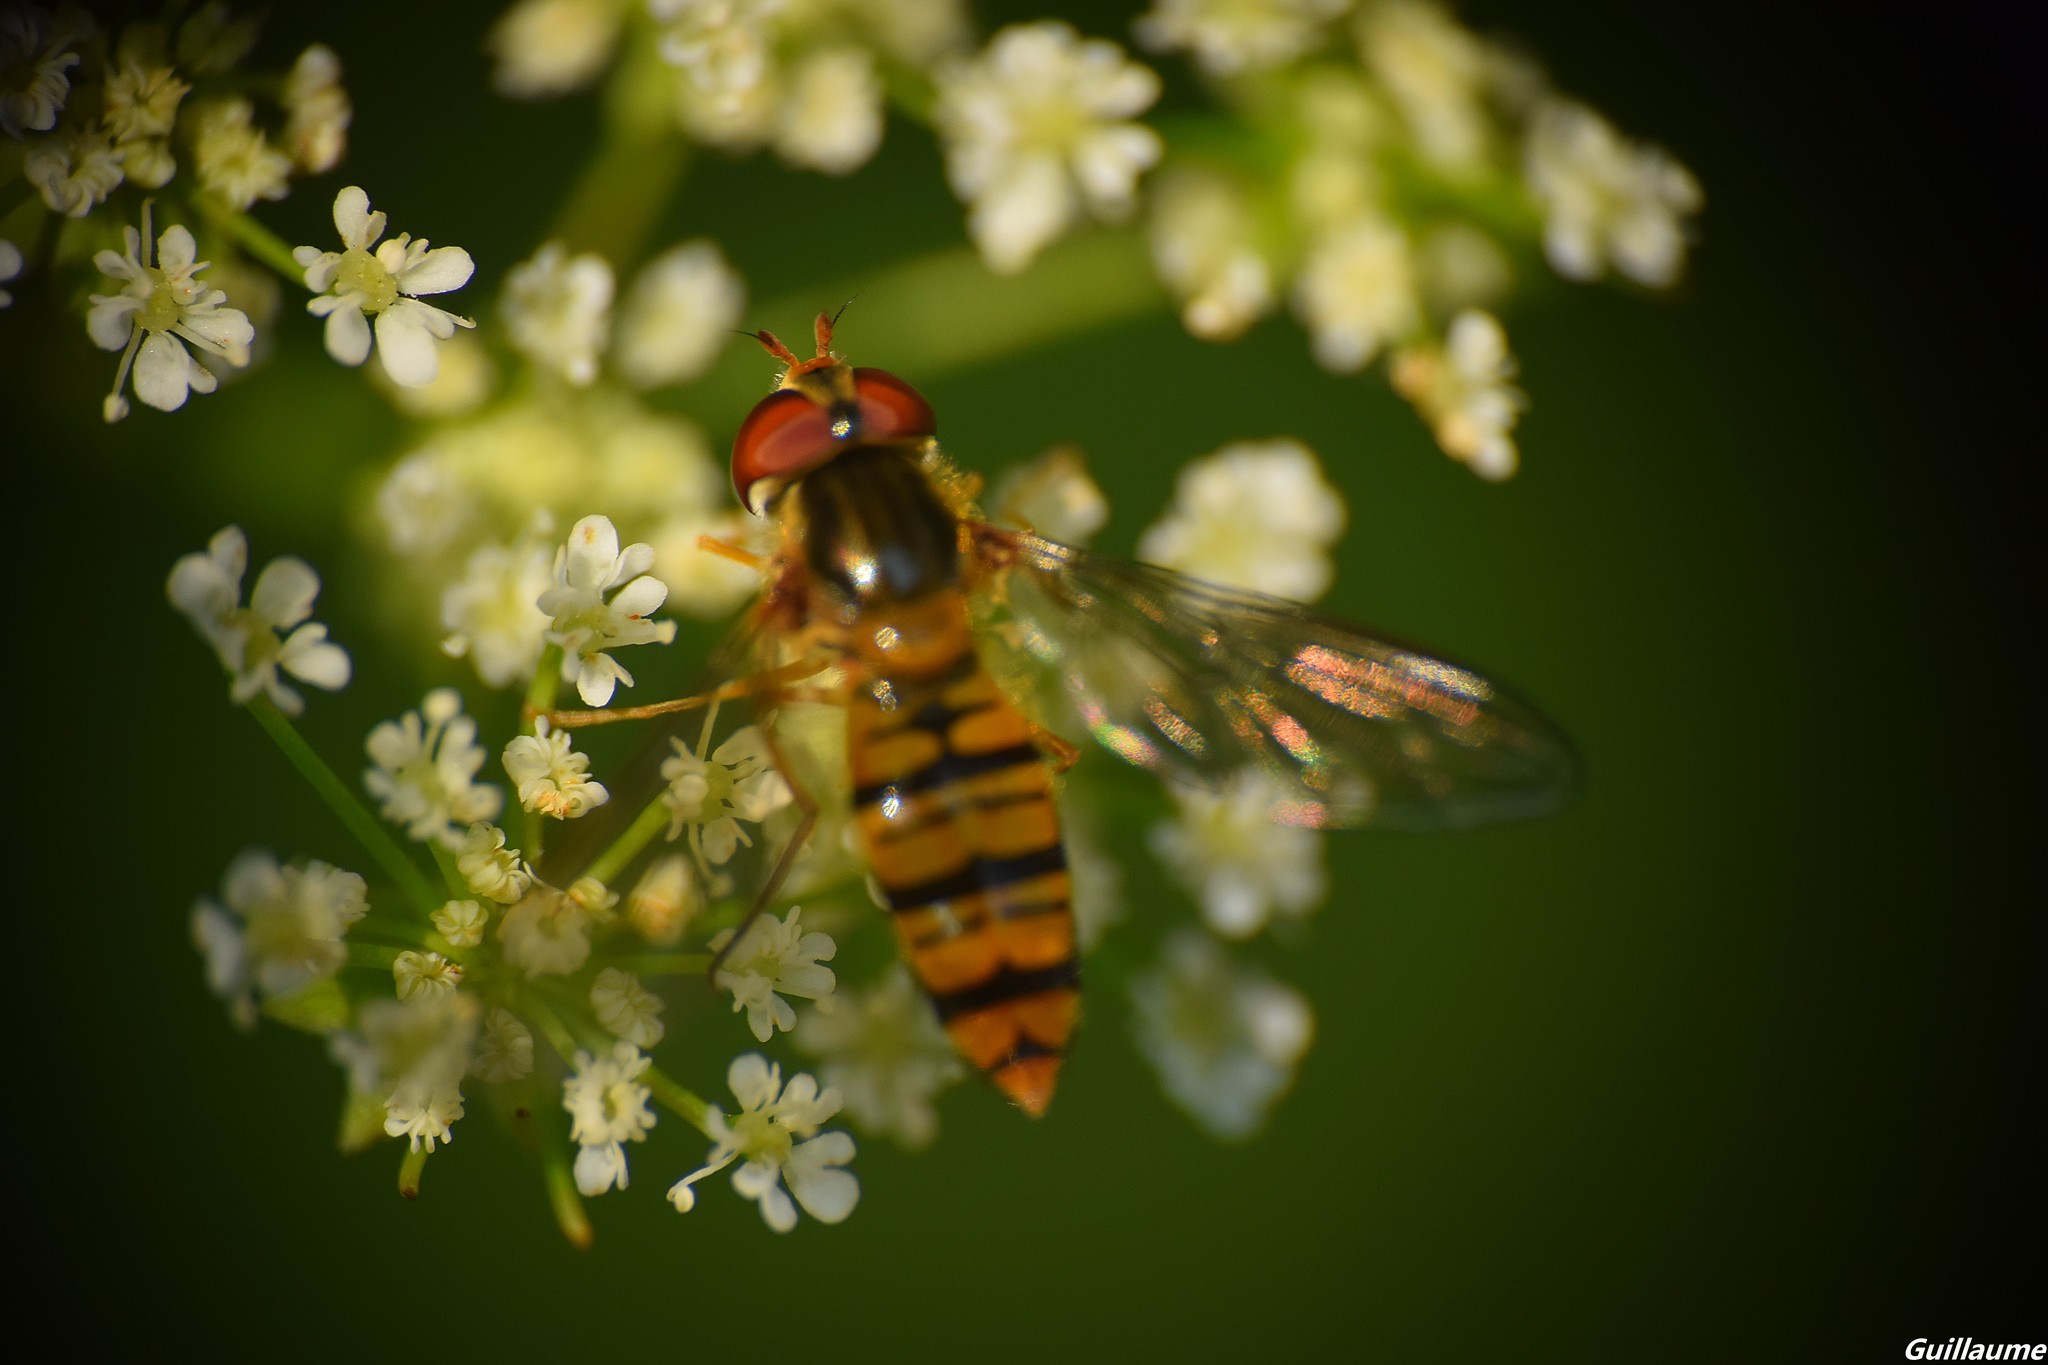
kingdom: Animalia
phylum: Arthropoda
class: Insecta
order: Diptera
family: Syrphidae
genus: Episyrphus
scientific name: Episyrphus balteatus
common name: Marmalade hoverfly
